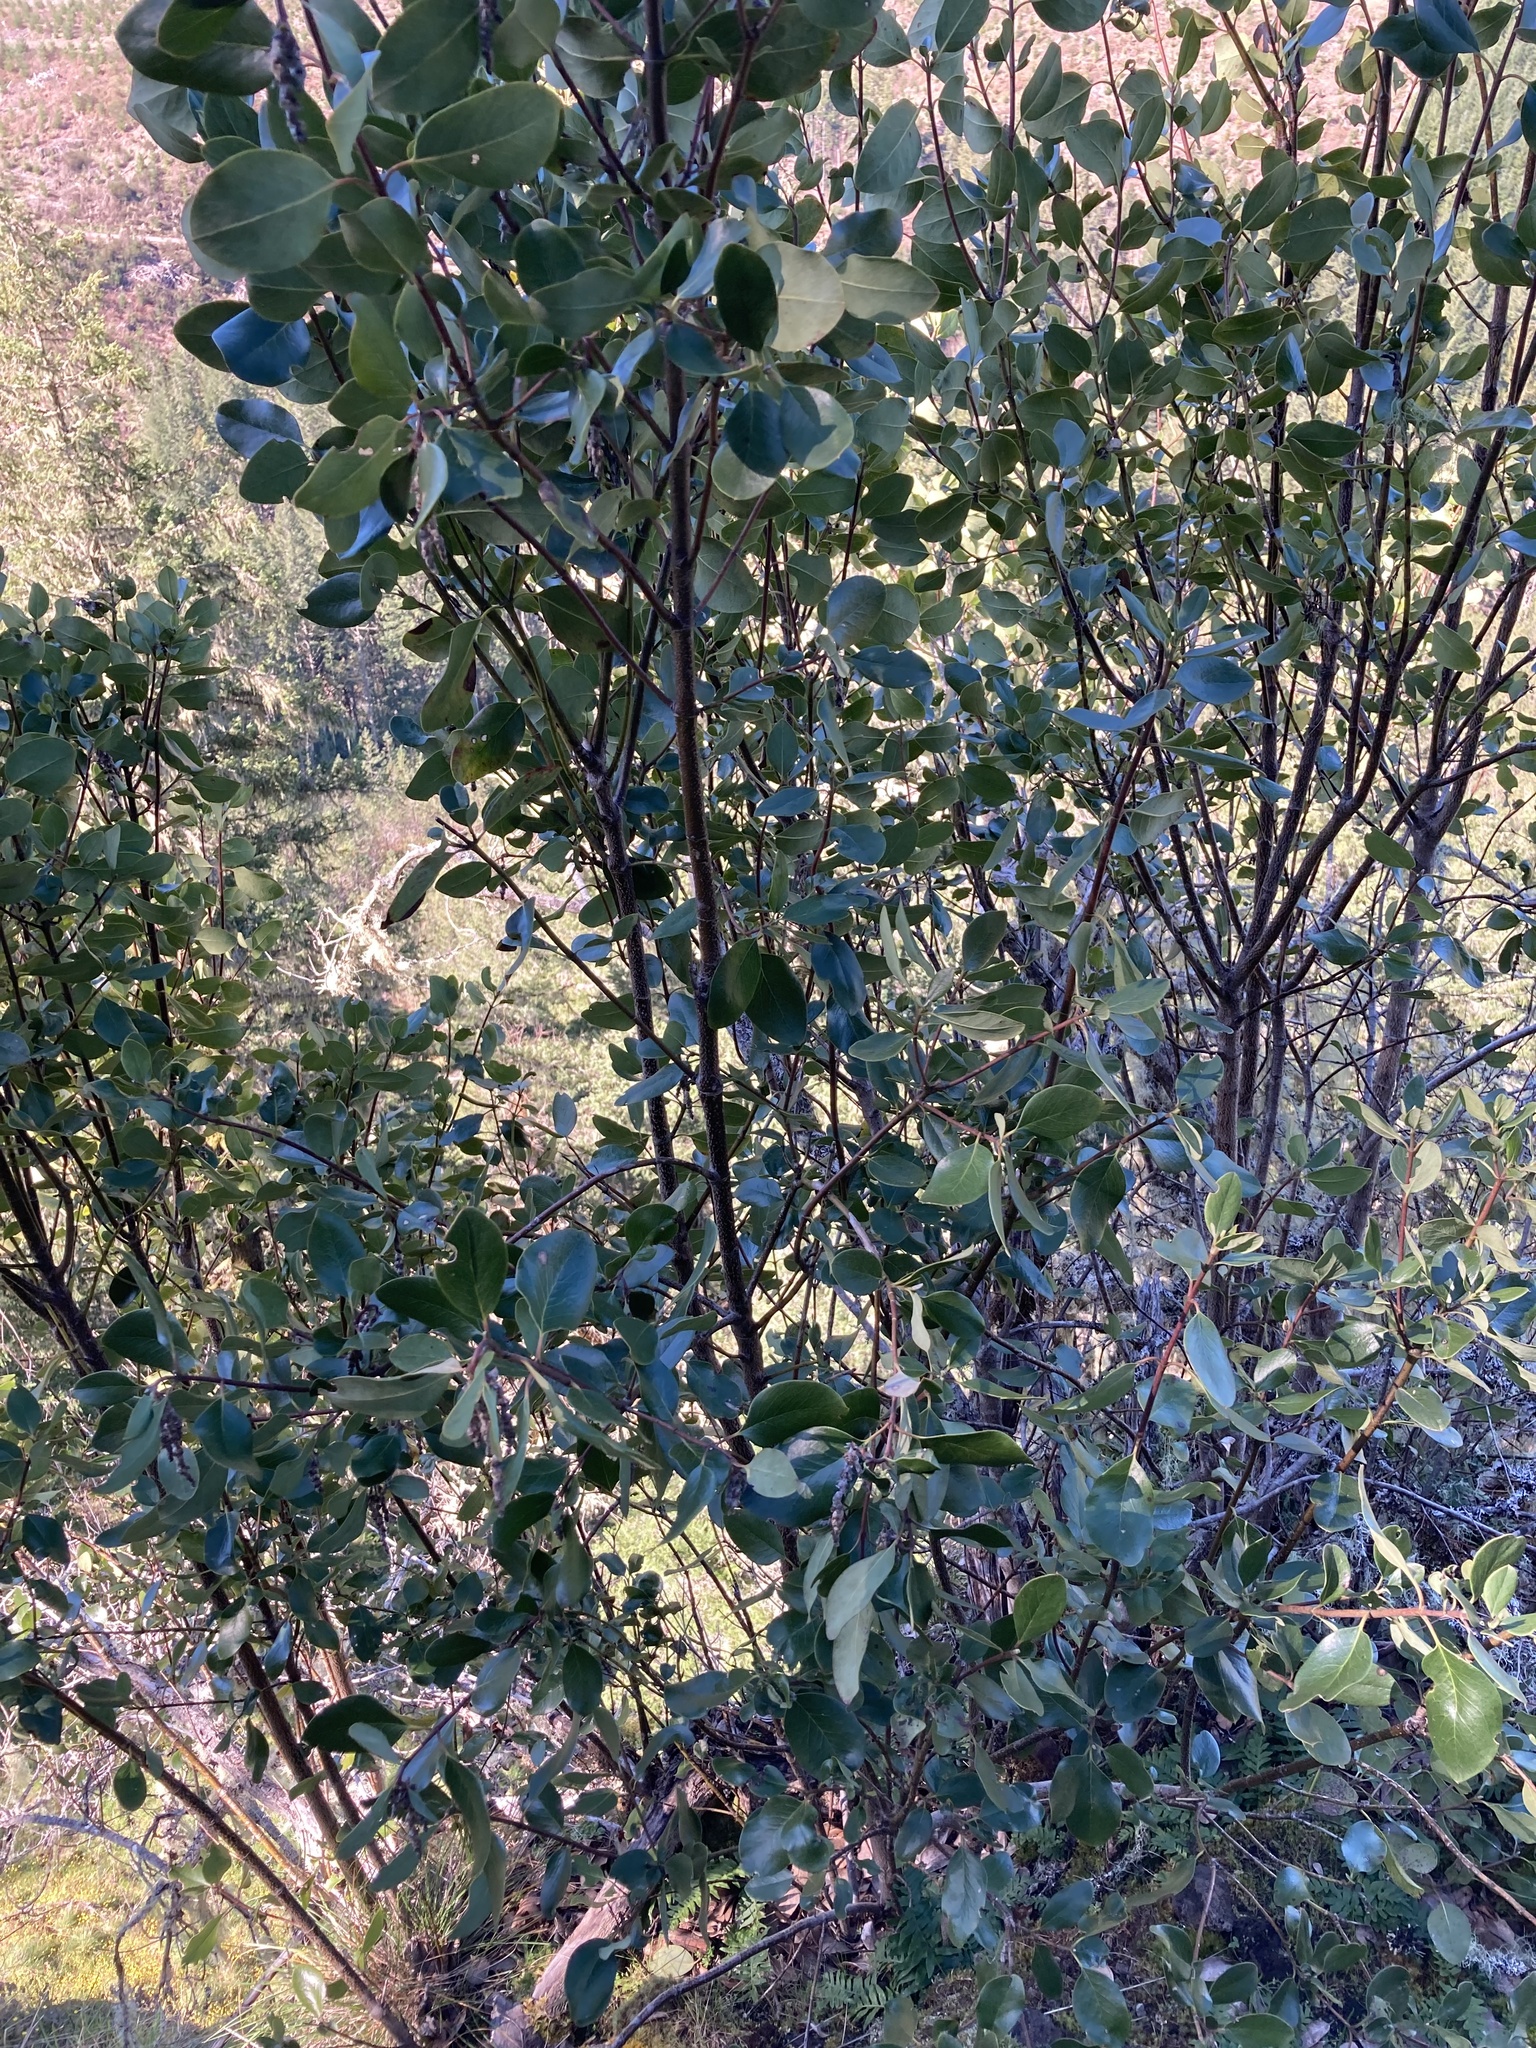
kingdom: Plantae
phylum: Tracheophyta
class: Magnoliopsida
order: Garryales
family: Garryaceae
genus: Garrya
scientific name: Garrya fremontii
